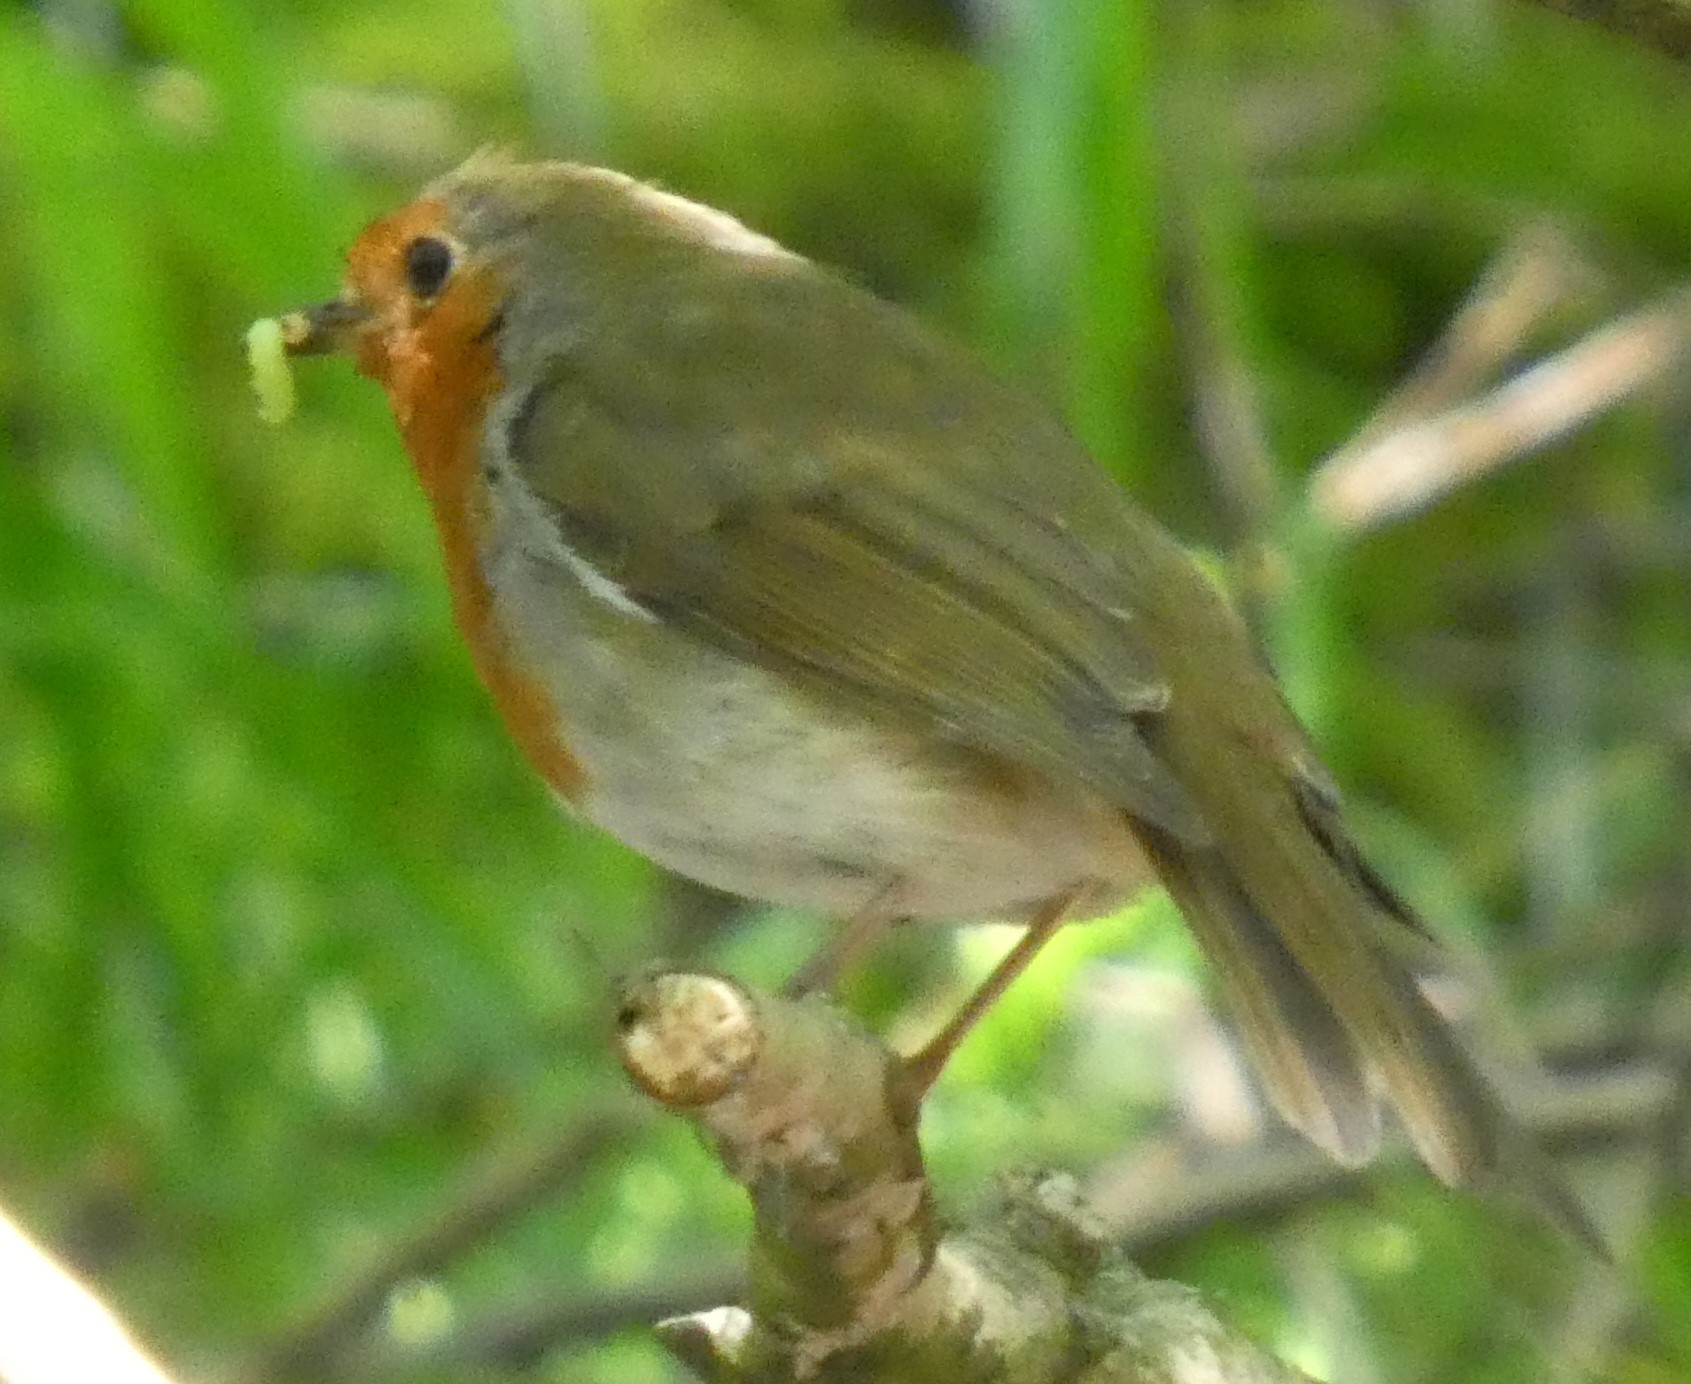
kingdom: Animalia
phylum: Chordata
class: Aves
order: Passeriformes
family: Muscicapidae
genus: Erithacus
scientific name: Erithacus rubecula
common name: European robin
